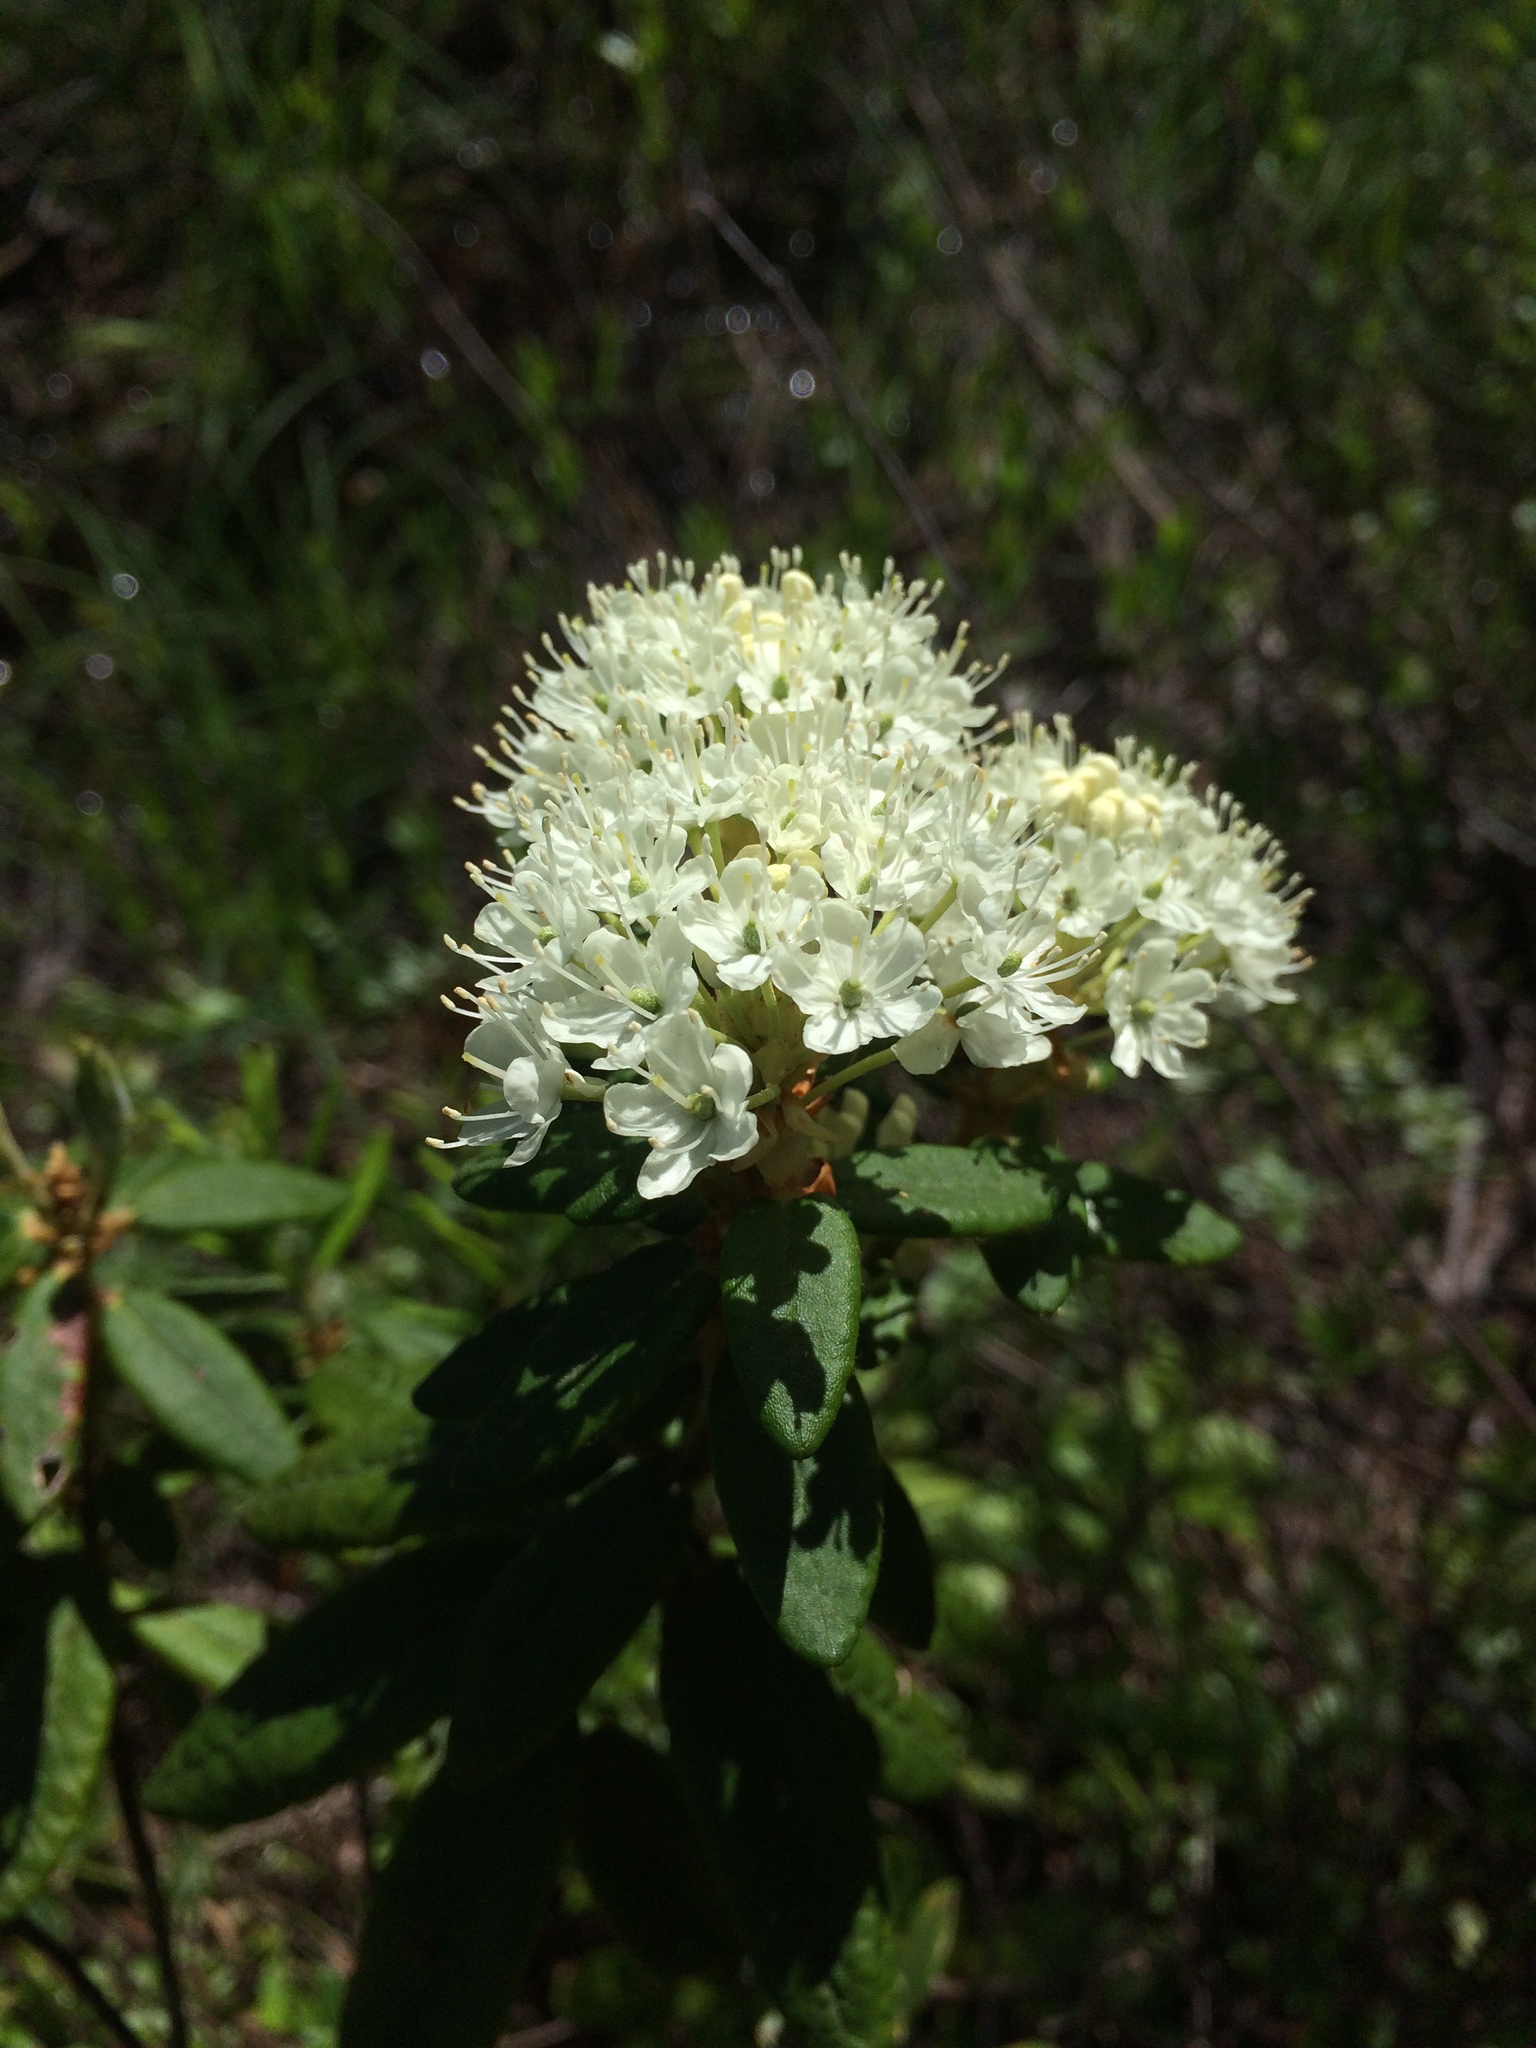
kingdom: Plantae
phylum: Tracheophyta
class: Magnoliopsida
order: Ericales
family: Ericaceae
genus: Rhododendron
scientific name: Rhododendron groenlandicum
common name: Bog labrador tea
